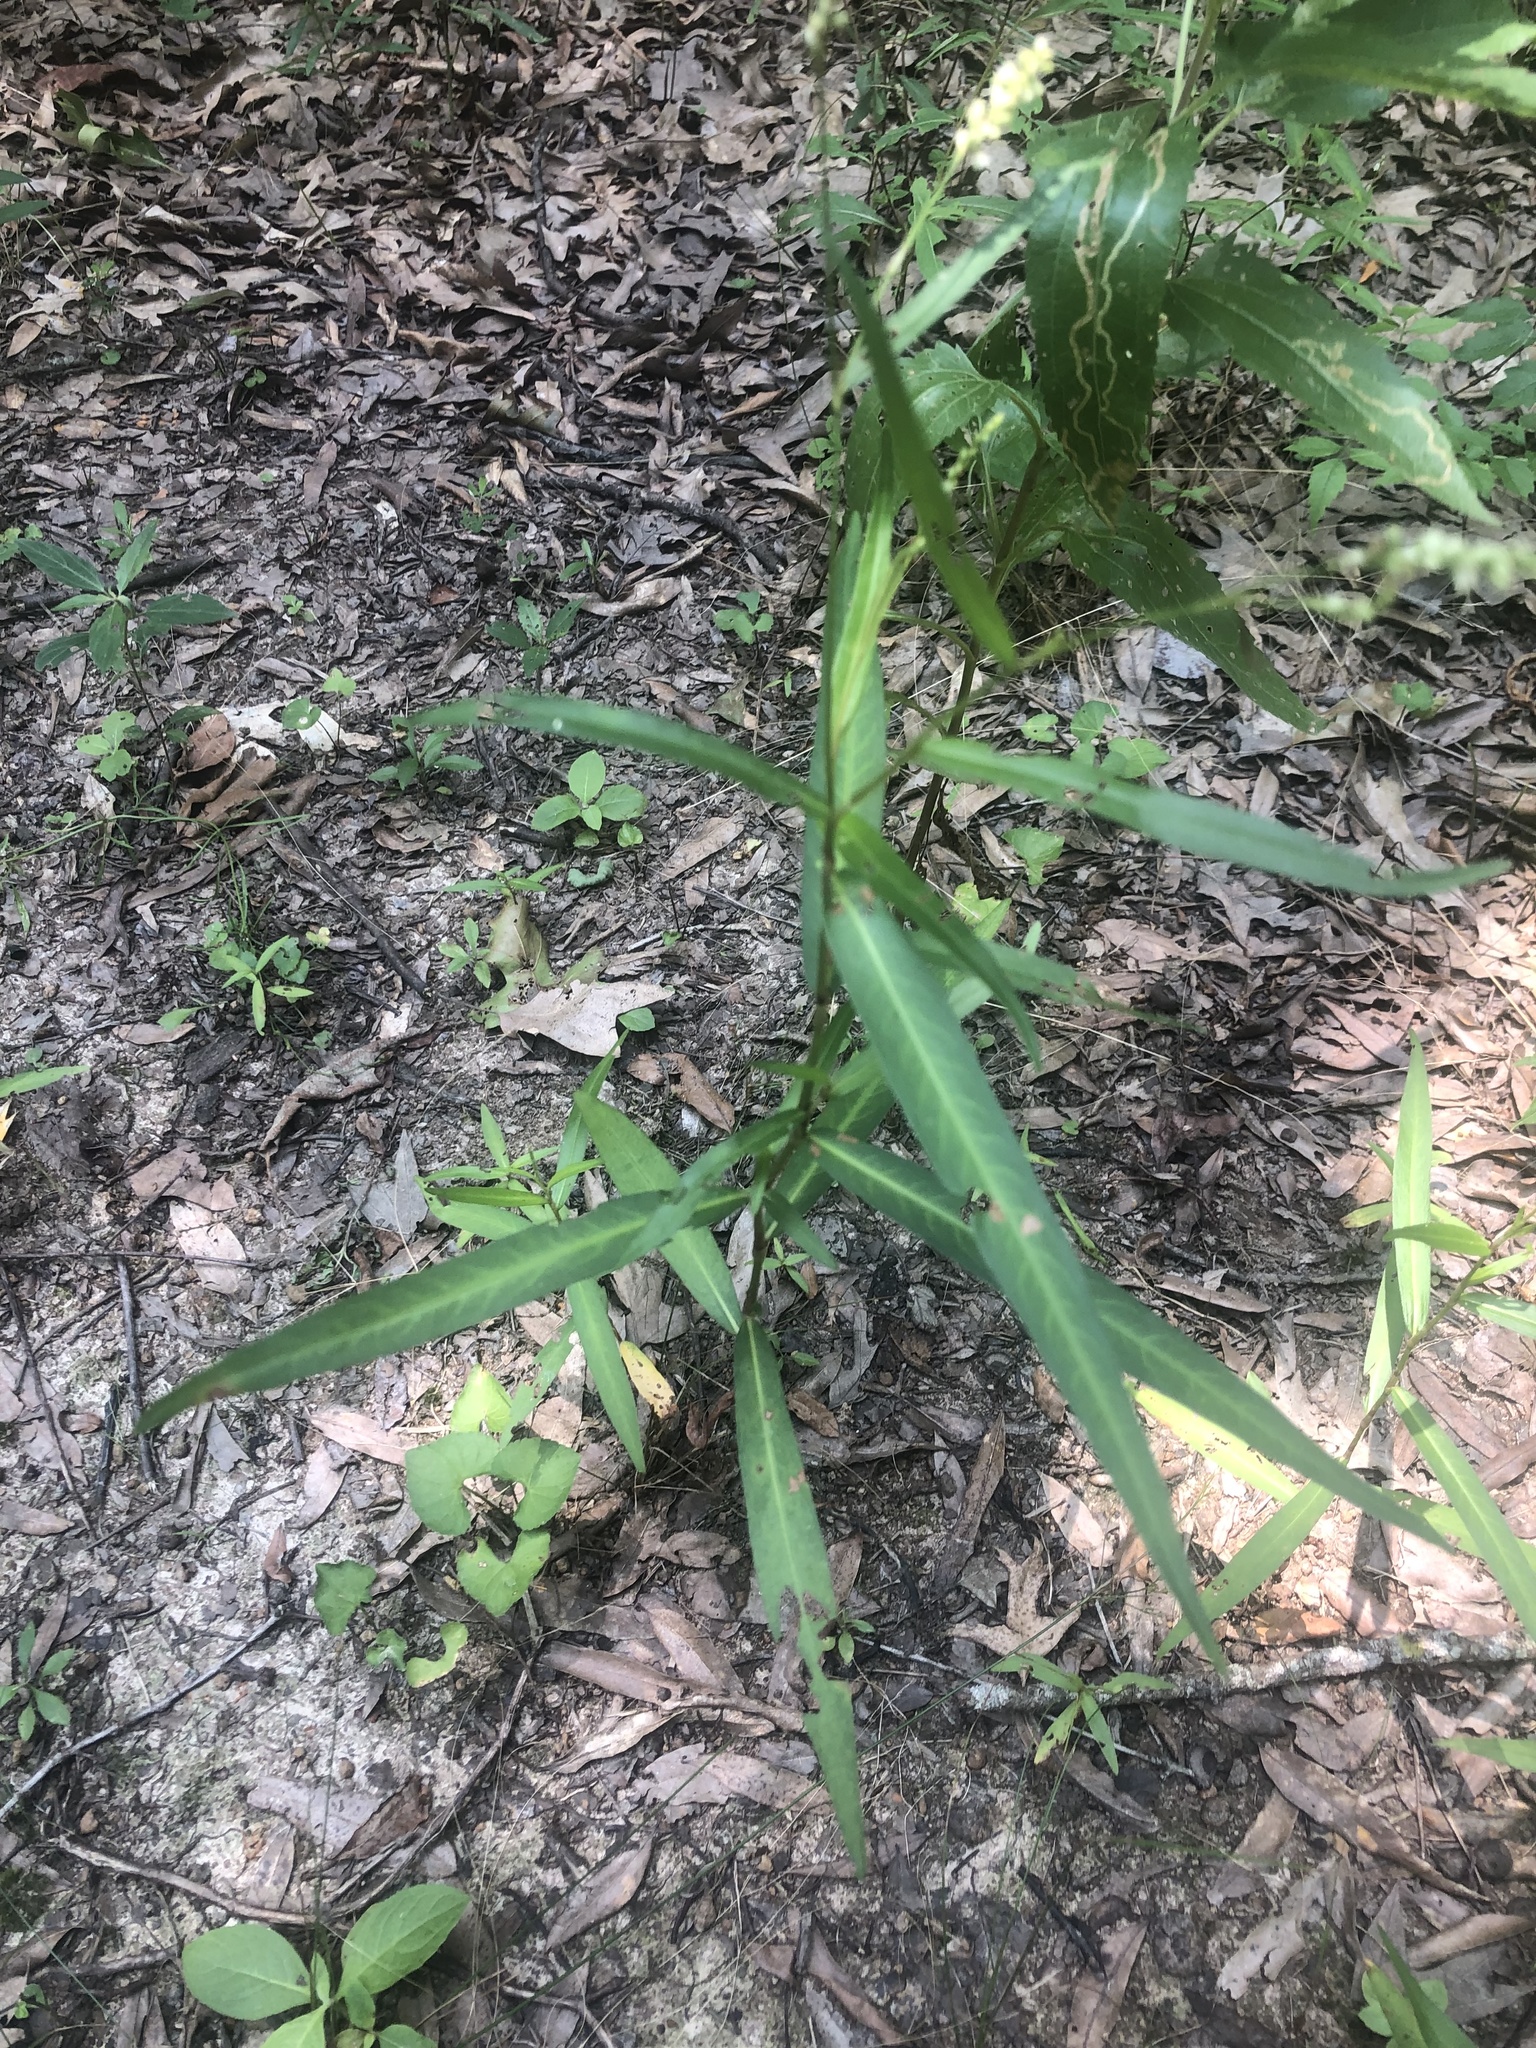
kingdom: Plantae
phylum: Tracheophyta
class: Magnoliopsida
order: Caryophyllales
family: Polygonaceae
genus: Persicaria
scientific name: Persicaria hydropiperoides
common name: Swamp smartweed
